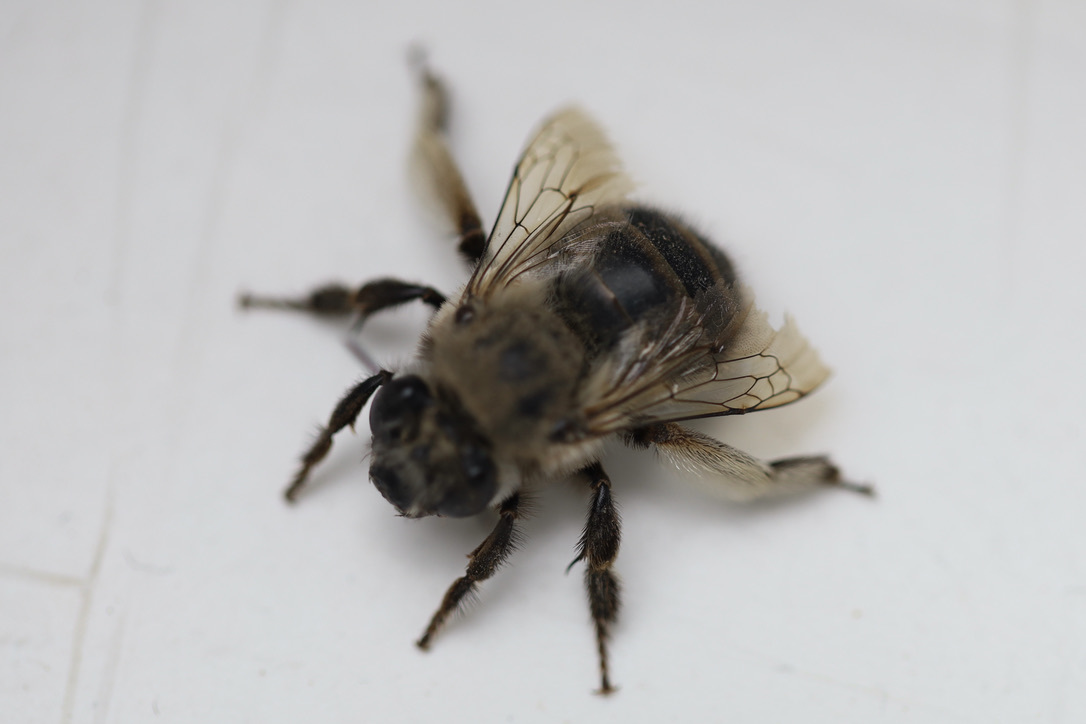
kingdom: Animalia
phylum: Arthropoda
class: Insecta
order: Hymenoptera
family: Apidae
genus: Anthophora
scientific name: Anthophora pacifica
